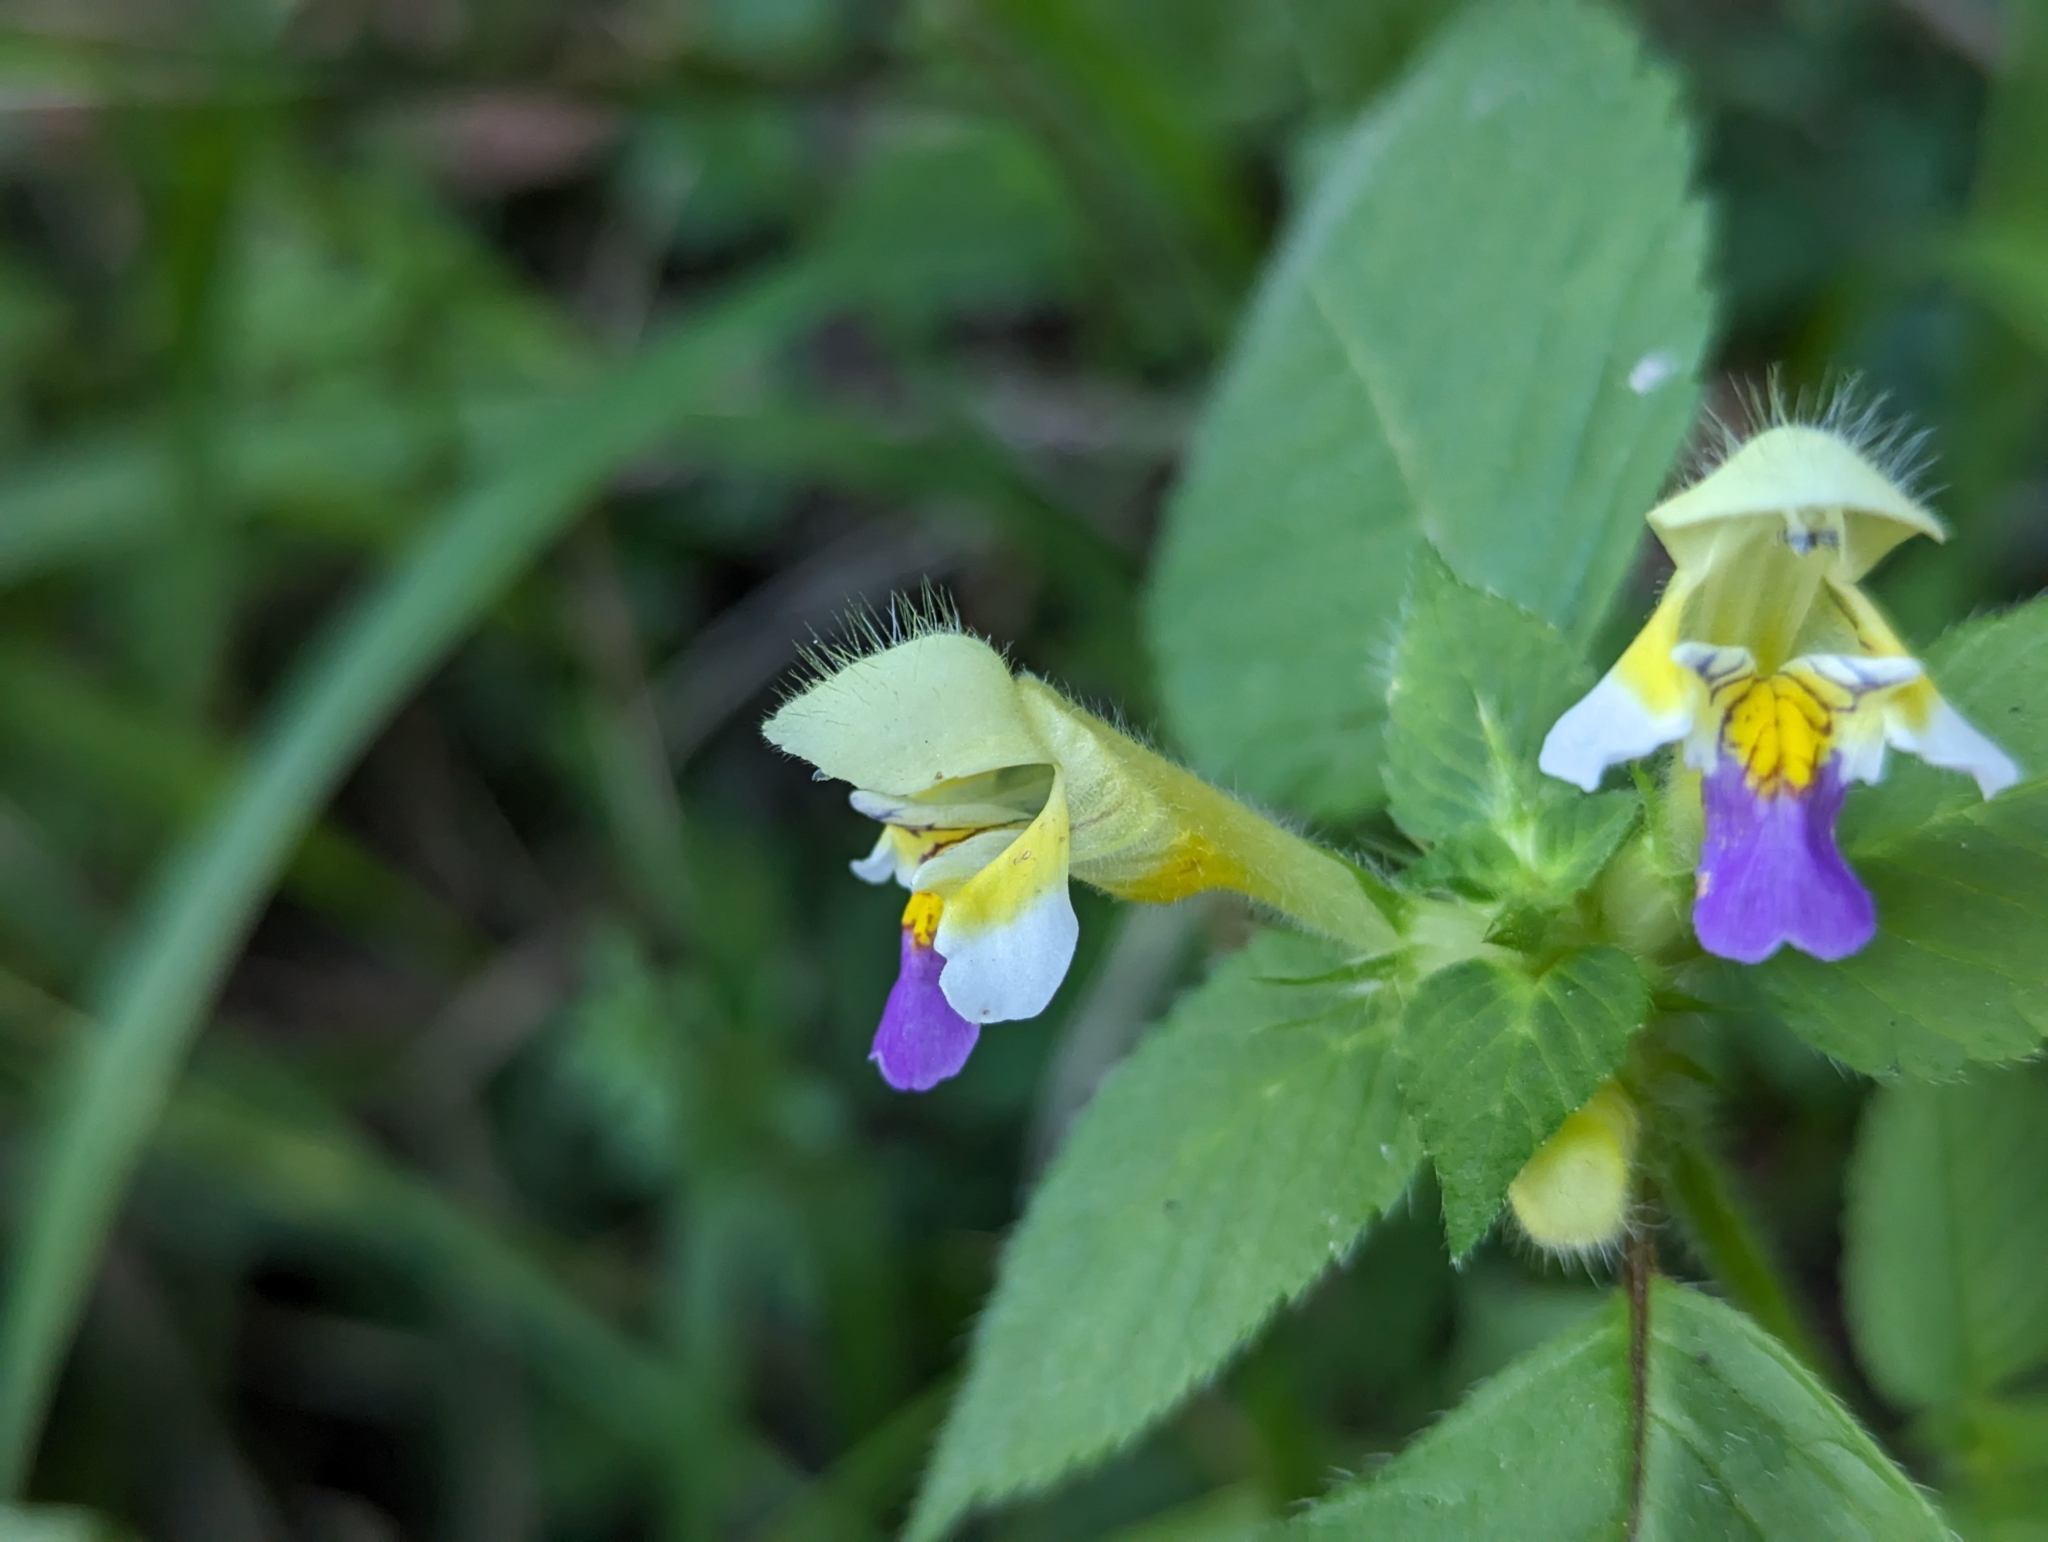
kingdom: Plantae
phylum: Tracheophyta
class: Magnoliopsida
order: Lamiales
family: Lamiaceae
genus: Galeopsis
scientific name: Galeopsis speciosa
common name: Large-flowered hemp-nettle
